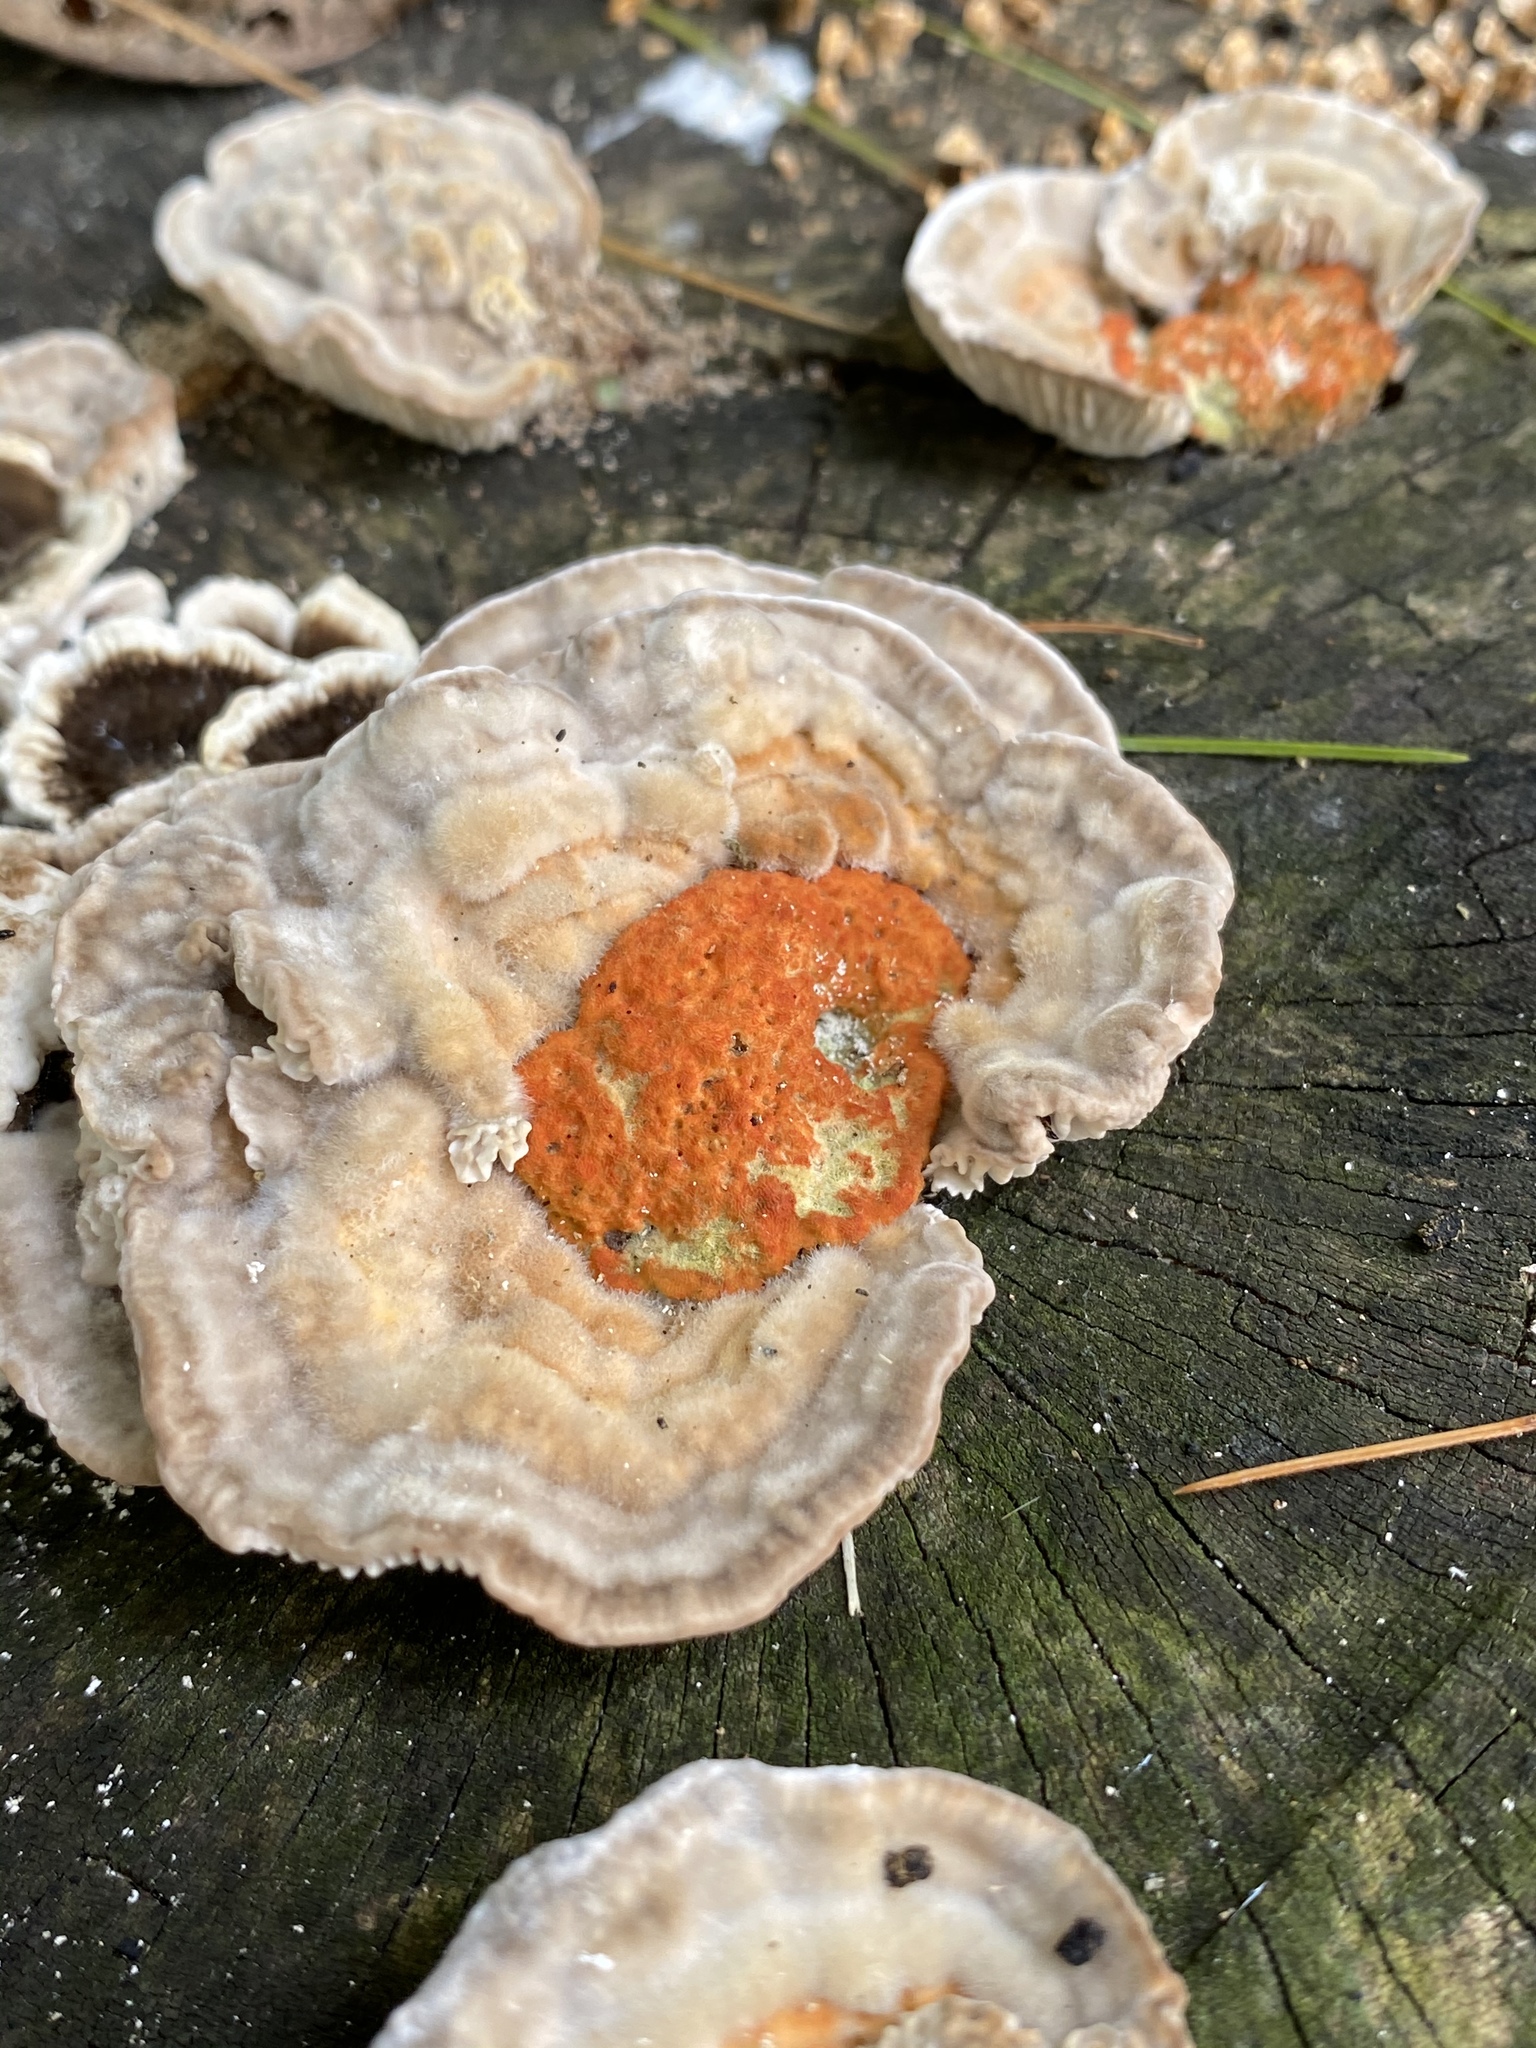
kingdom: Fungi
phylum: Basidiomycota
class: Agaricomycetes
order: Polyporales
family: Polyporaceae
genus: Lenzites
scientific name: Lenzites betulinus
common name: Birch mazegill
